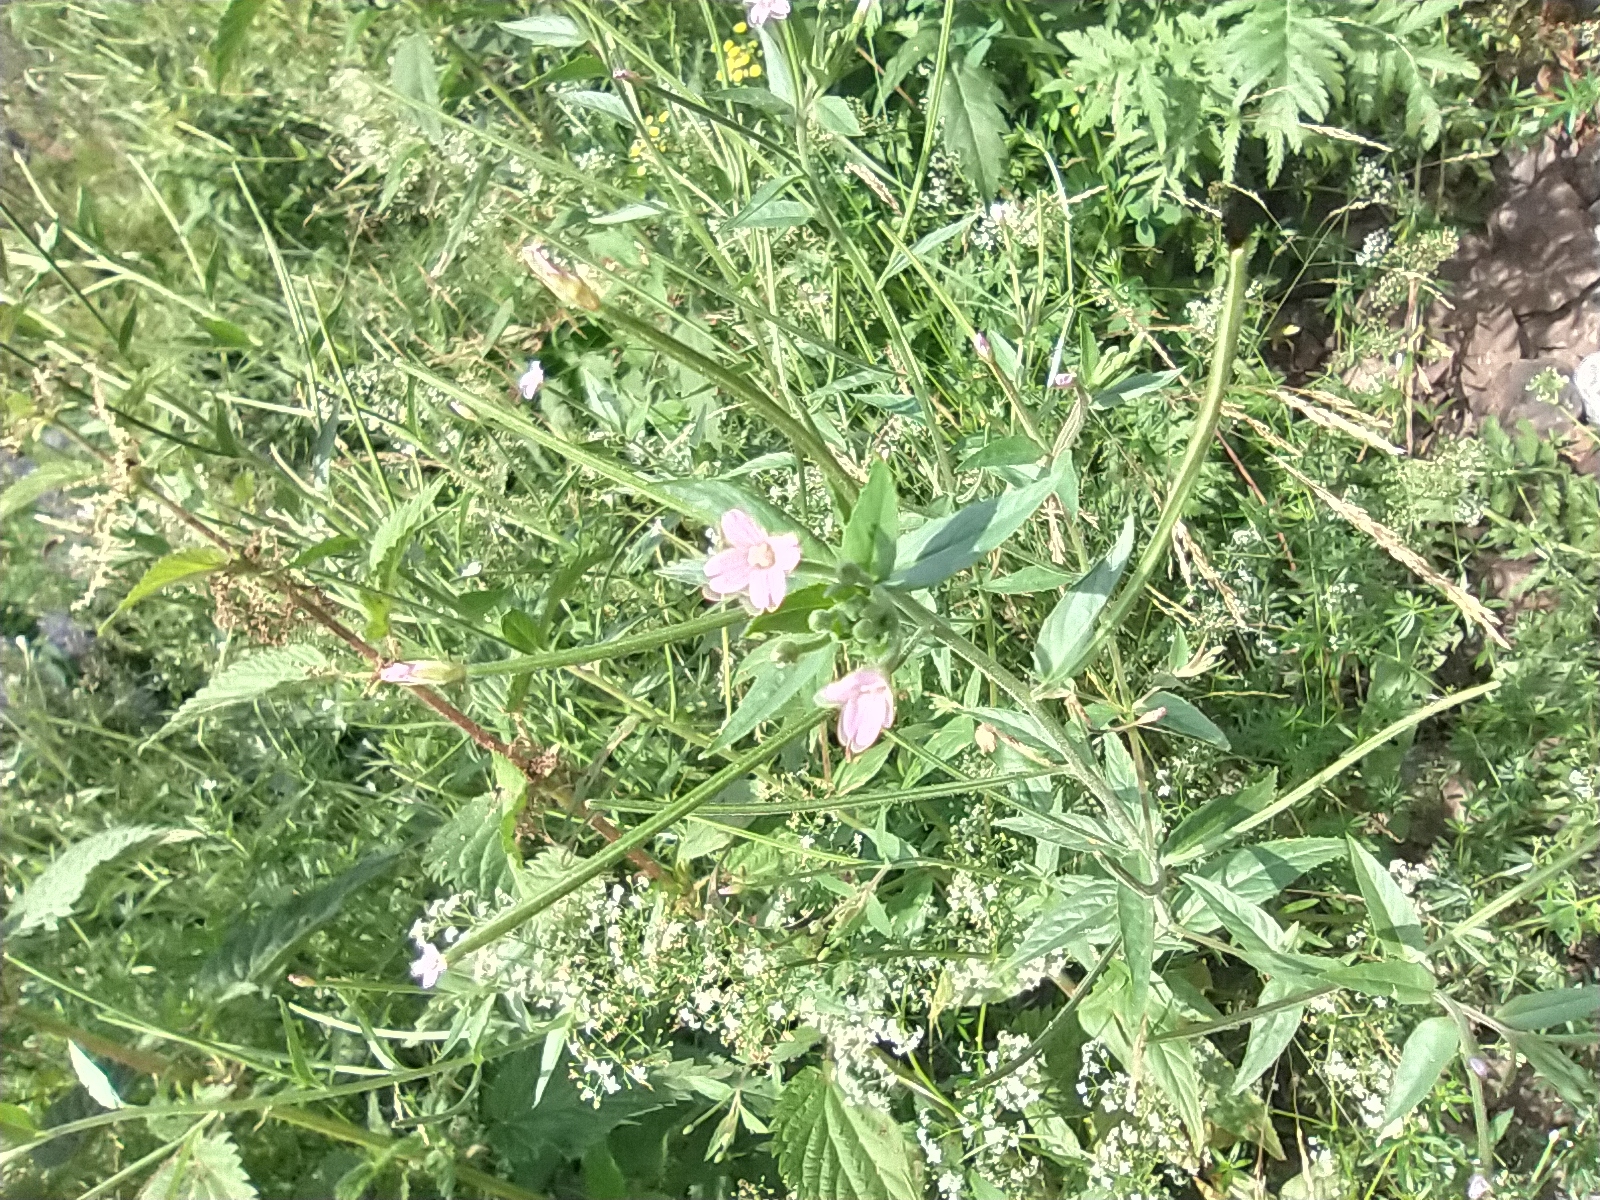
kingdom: Plantae
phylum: Tracheophyta
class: Magnoliopsida
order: Myrtales
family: Onagraceae
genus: Epilobium
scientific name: Epilobium montanum
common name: Broad-leaved willowherb
